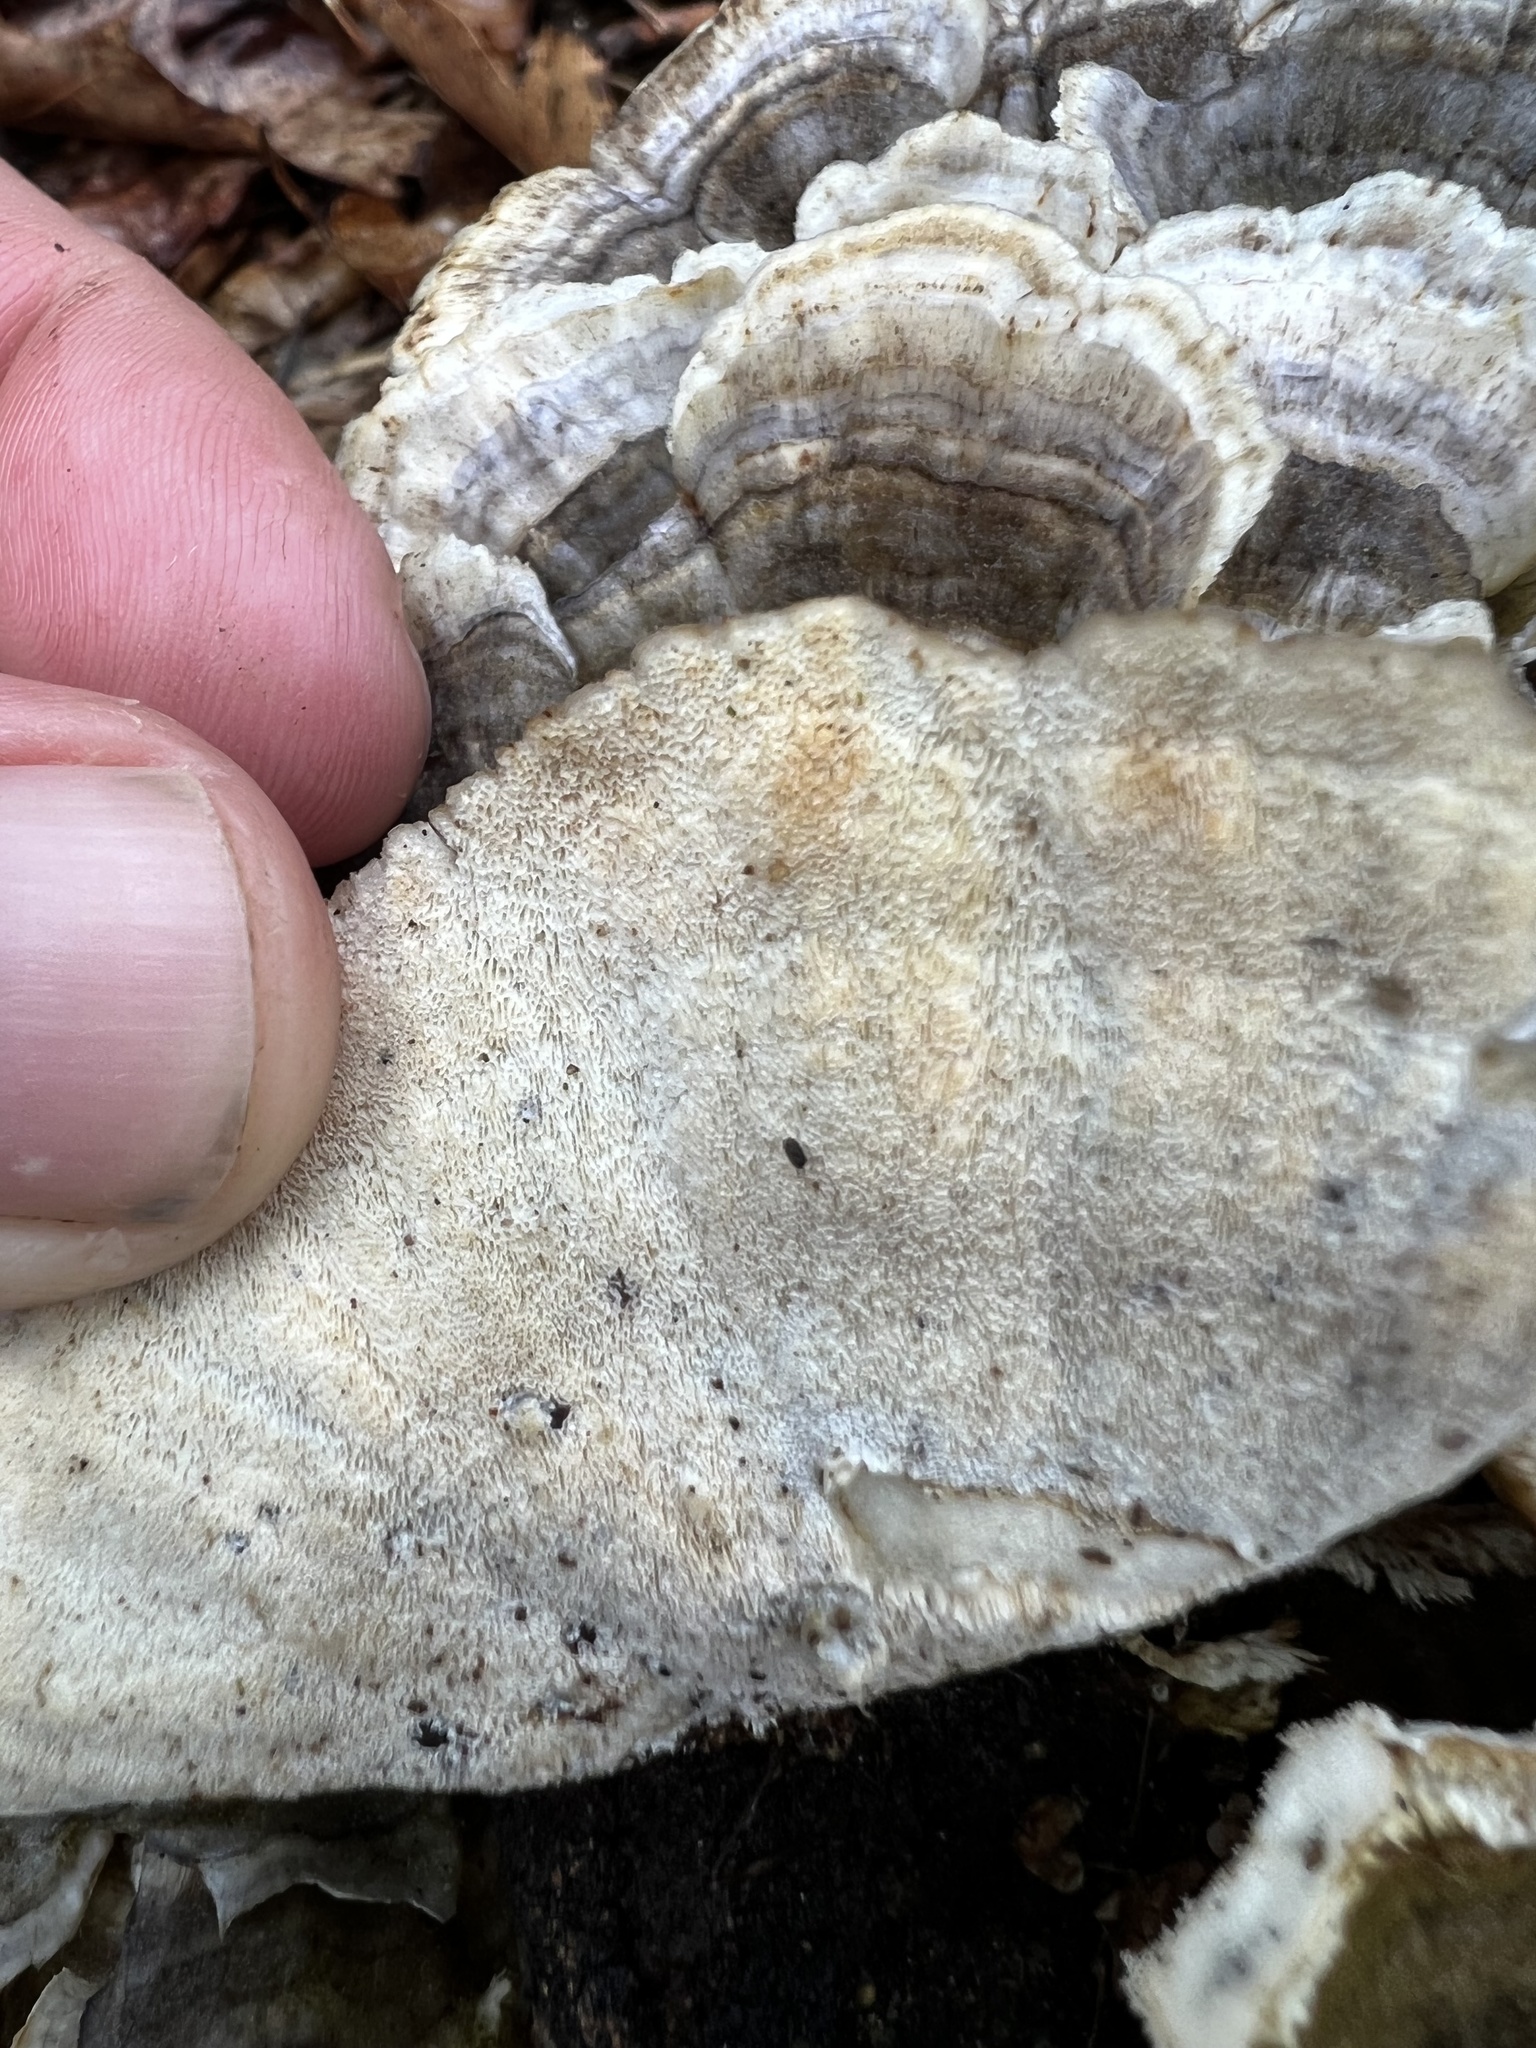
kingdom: Fungi
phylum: Basidiomycota
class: Agaricomycetes
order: Polyporales
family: Polyporaceae
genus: Trametes
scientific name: Trametes versicolor
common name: Turkeytail
